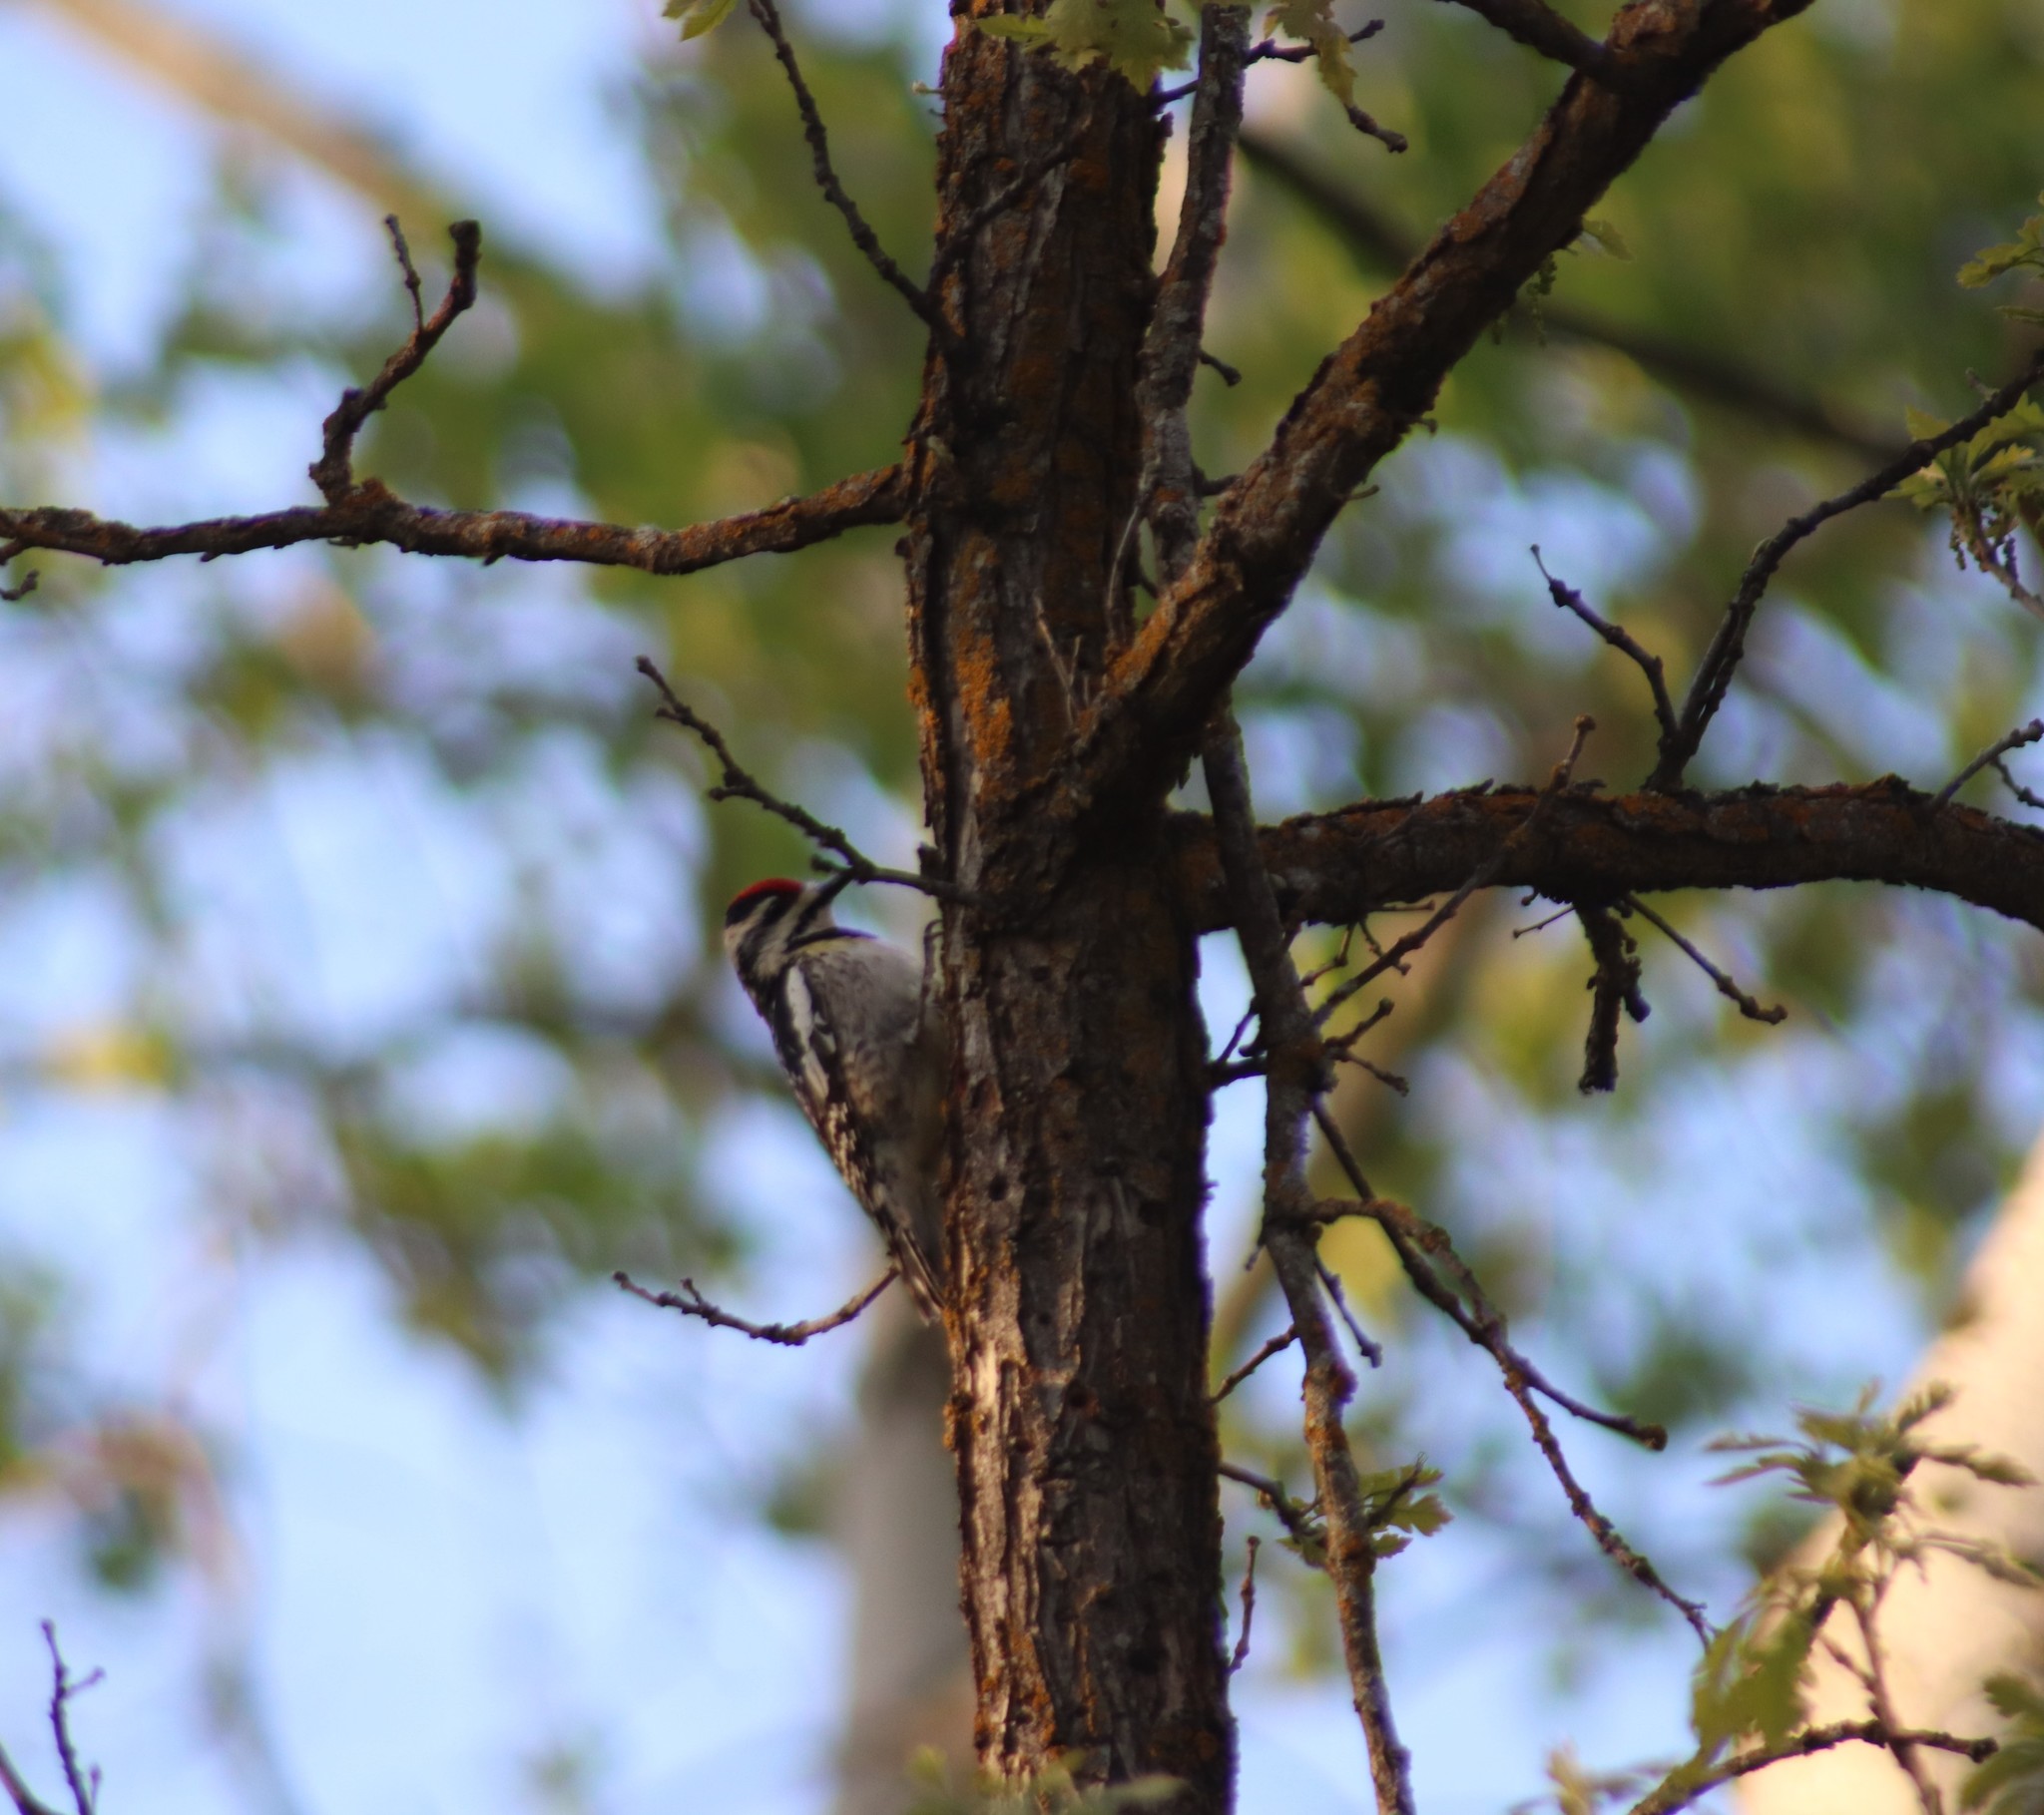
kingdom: Animalia
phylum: Chordata
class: Aves
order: Piciformes
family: Picidae
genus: Sphyrapicus
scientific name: Sphyrapicus varius
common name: Yellow-bellied sapsucker
